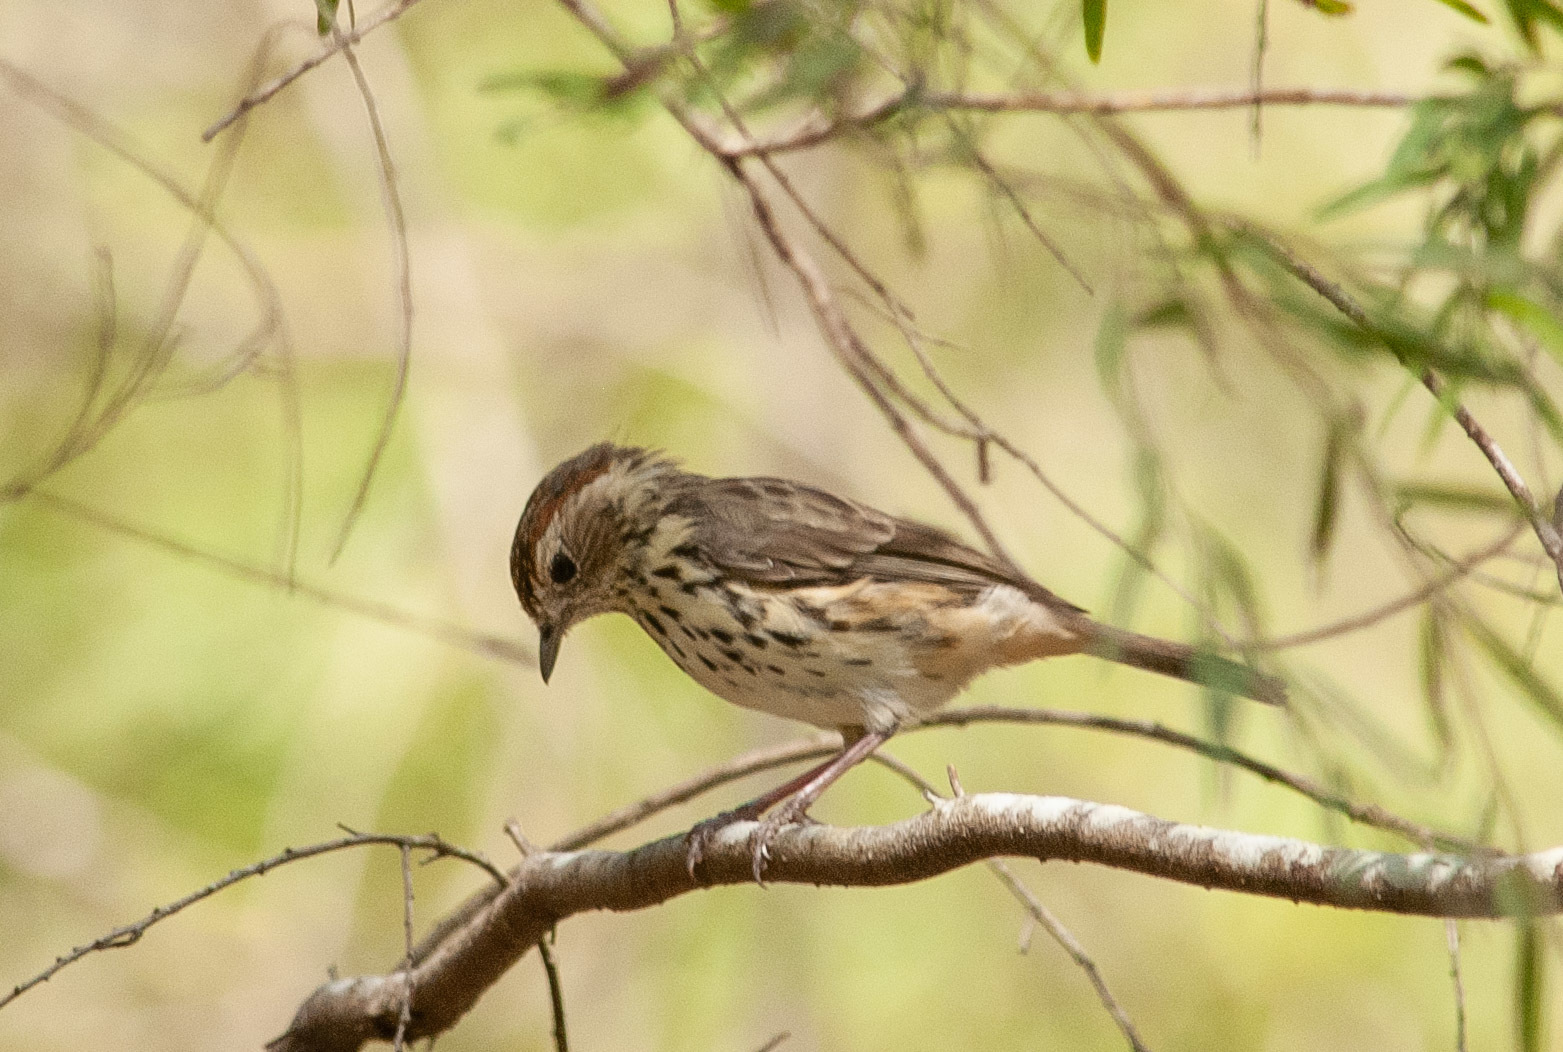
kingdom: Animalia
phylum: Chordata
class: Aves
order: Passeriformes
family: Acanthizidae
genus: Pyrrholaemus
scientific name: Pyrrholaemus sagittatus
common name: Speckled warbler
